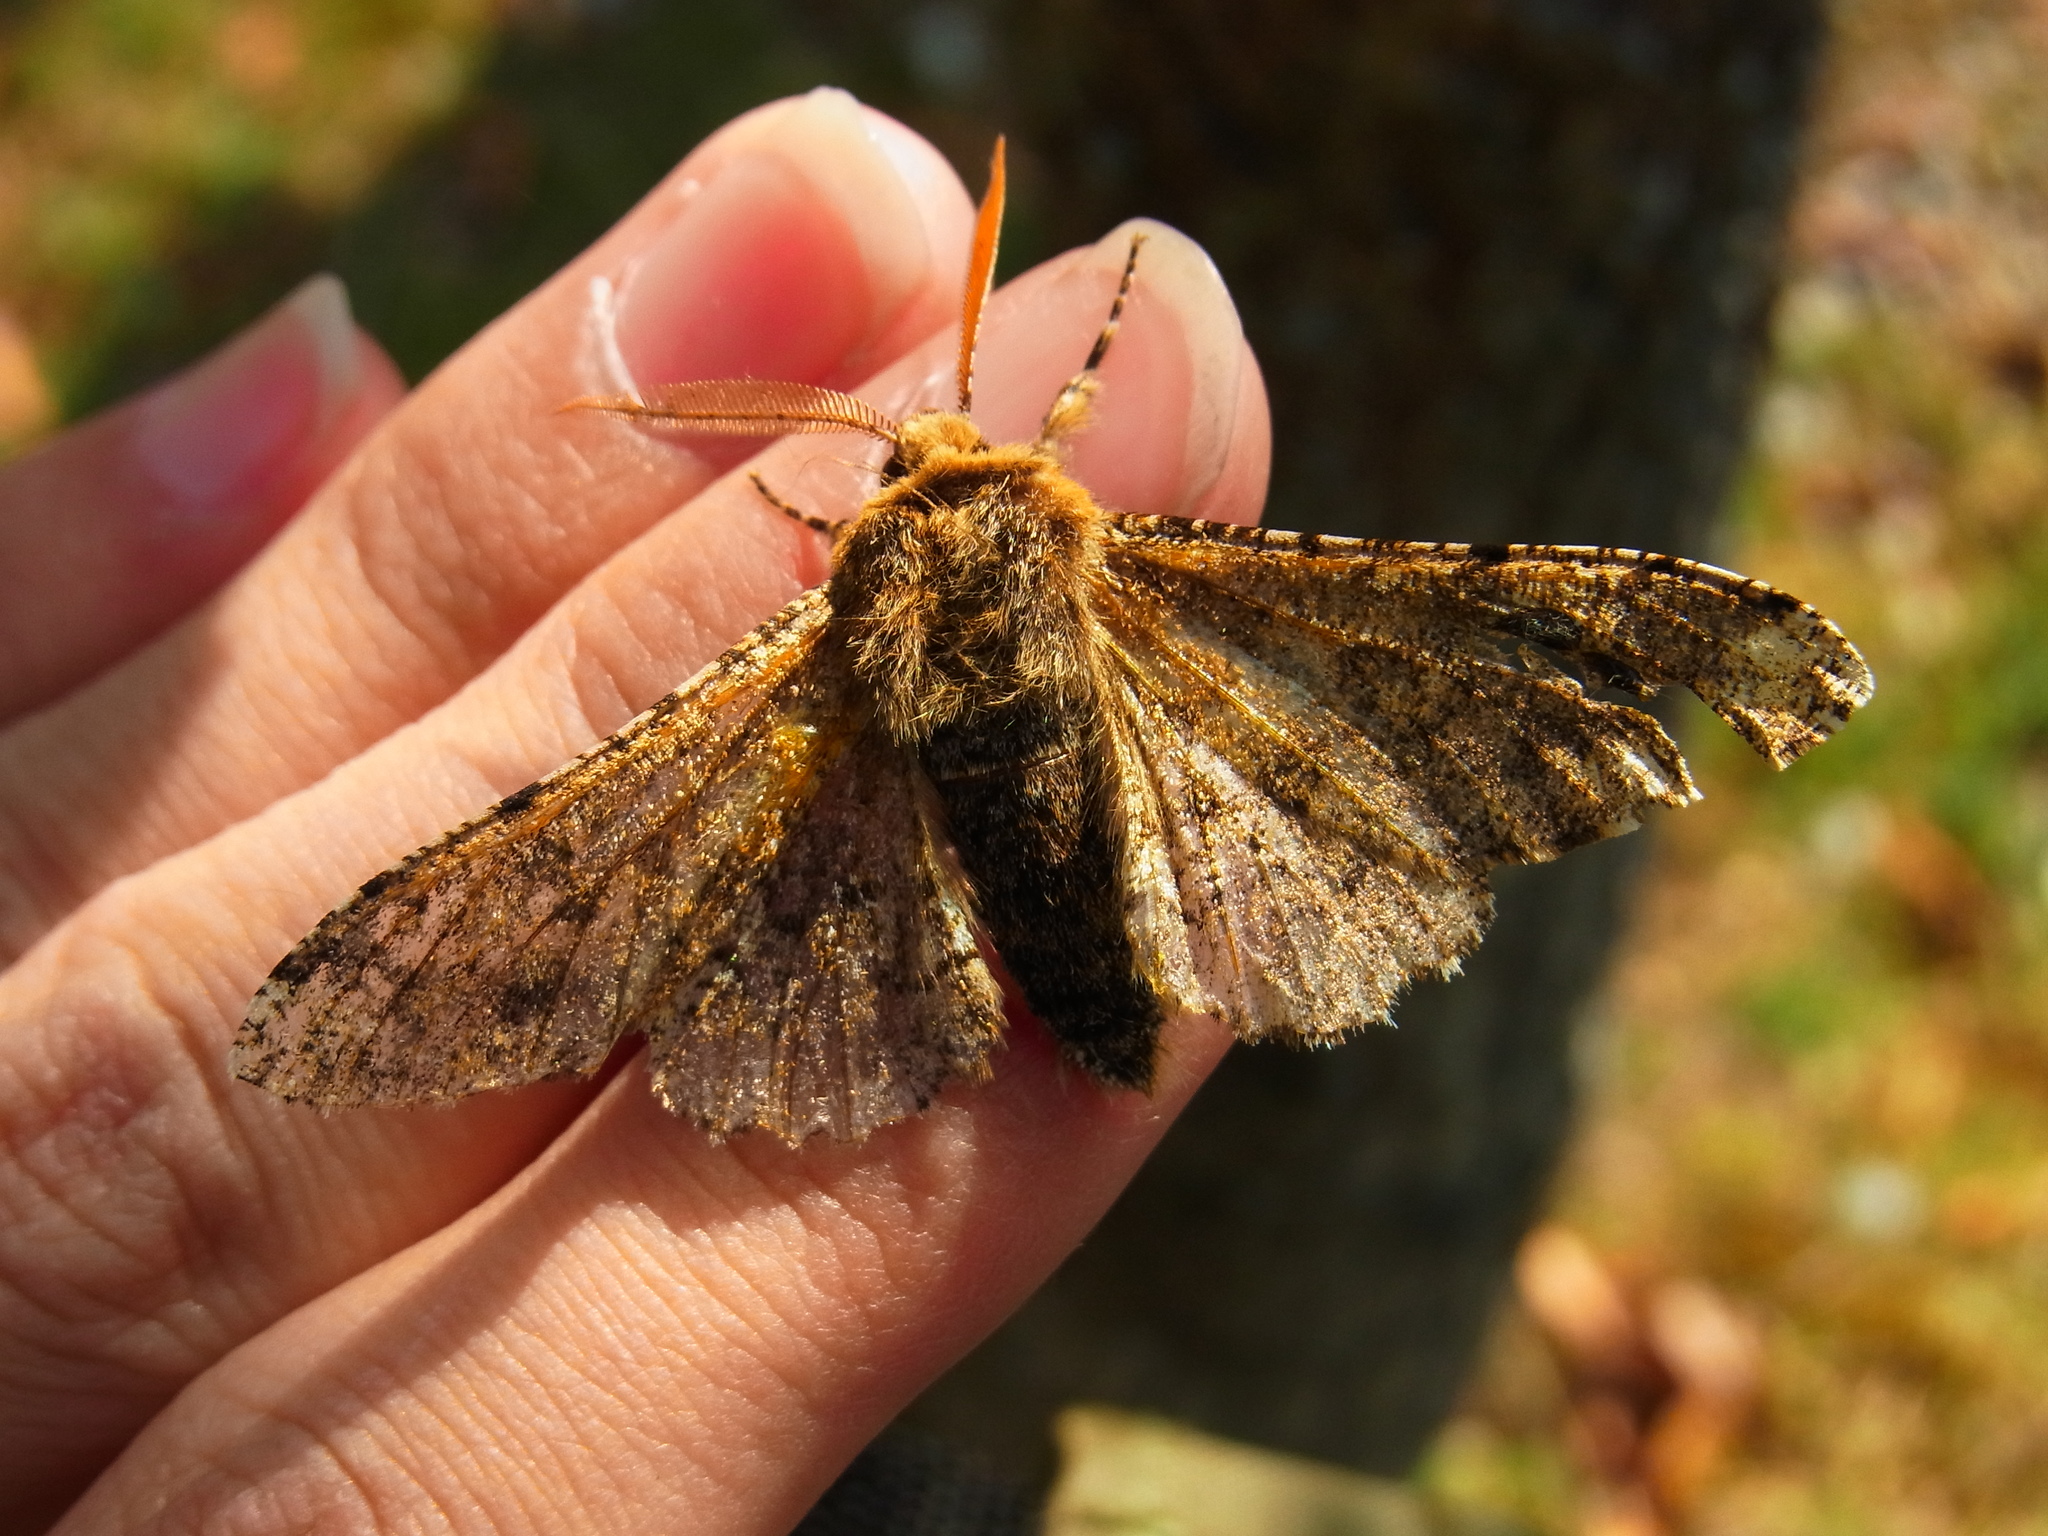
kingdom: Animalia
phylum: Arthropoda
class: Insecta
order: Lepidoptera
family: Geometridae
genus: Biston
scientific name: Biston robustum
